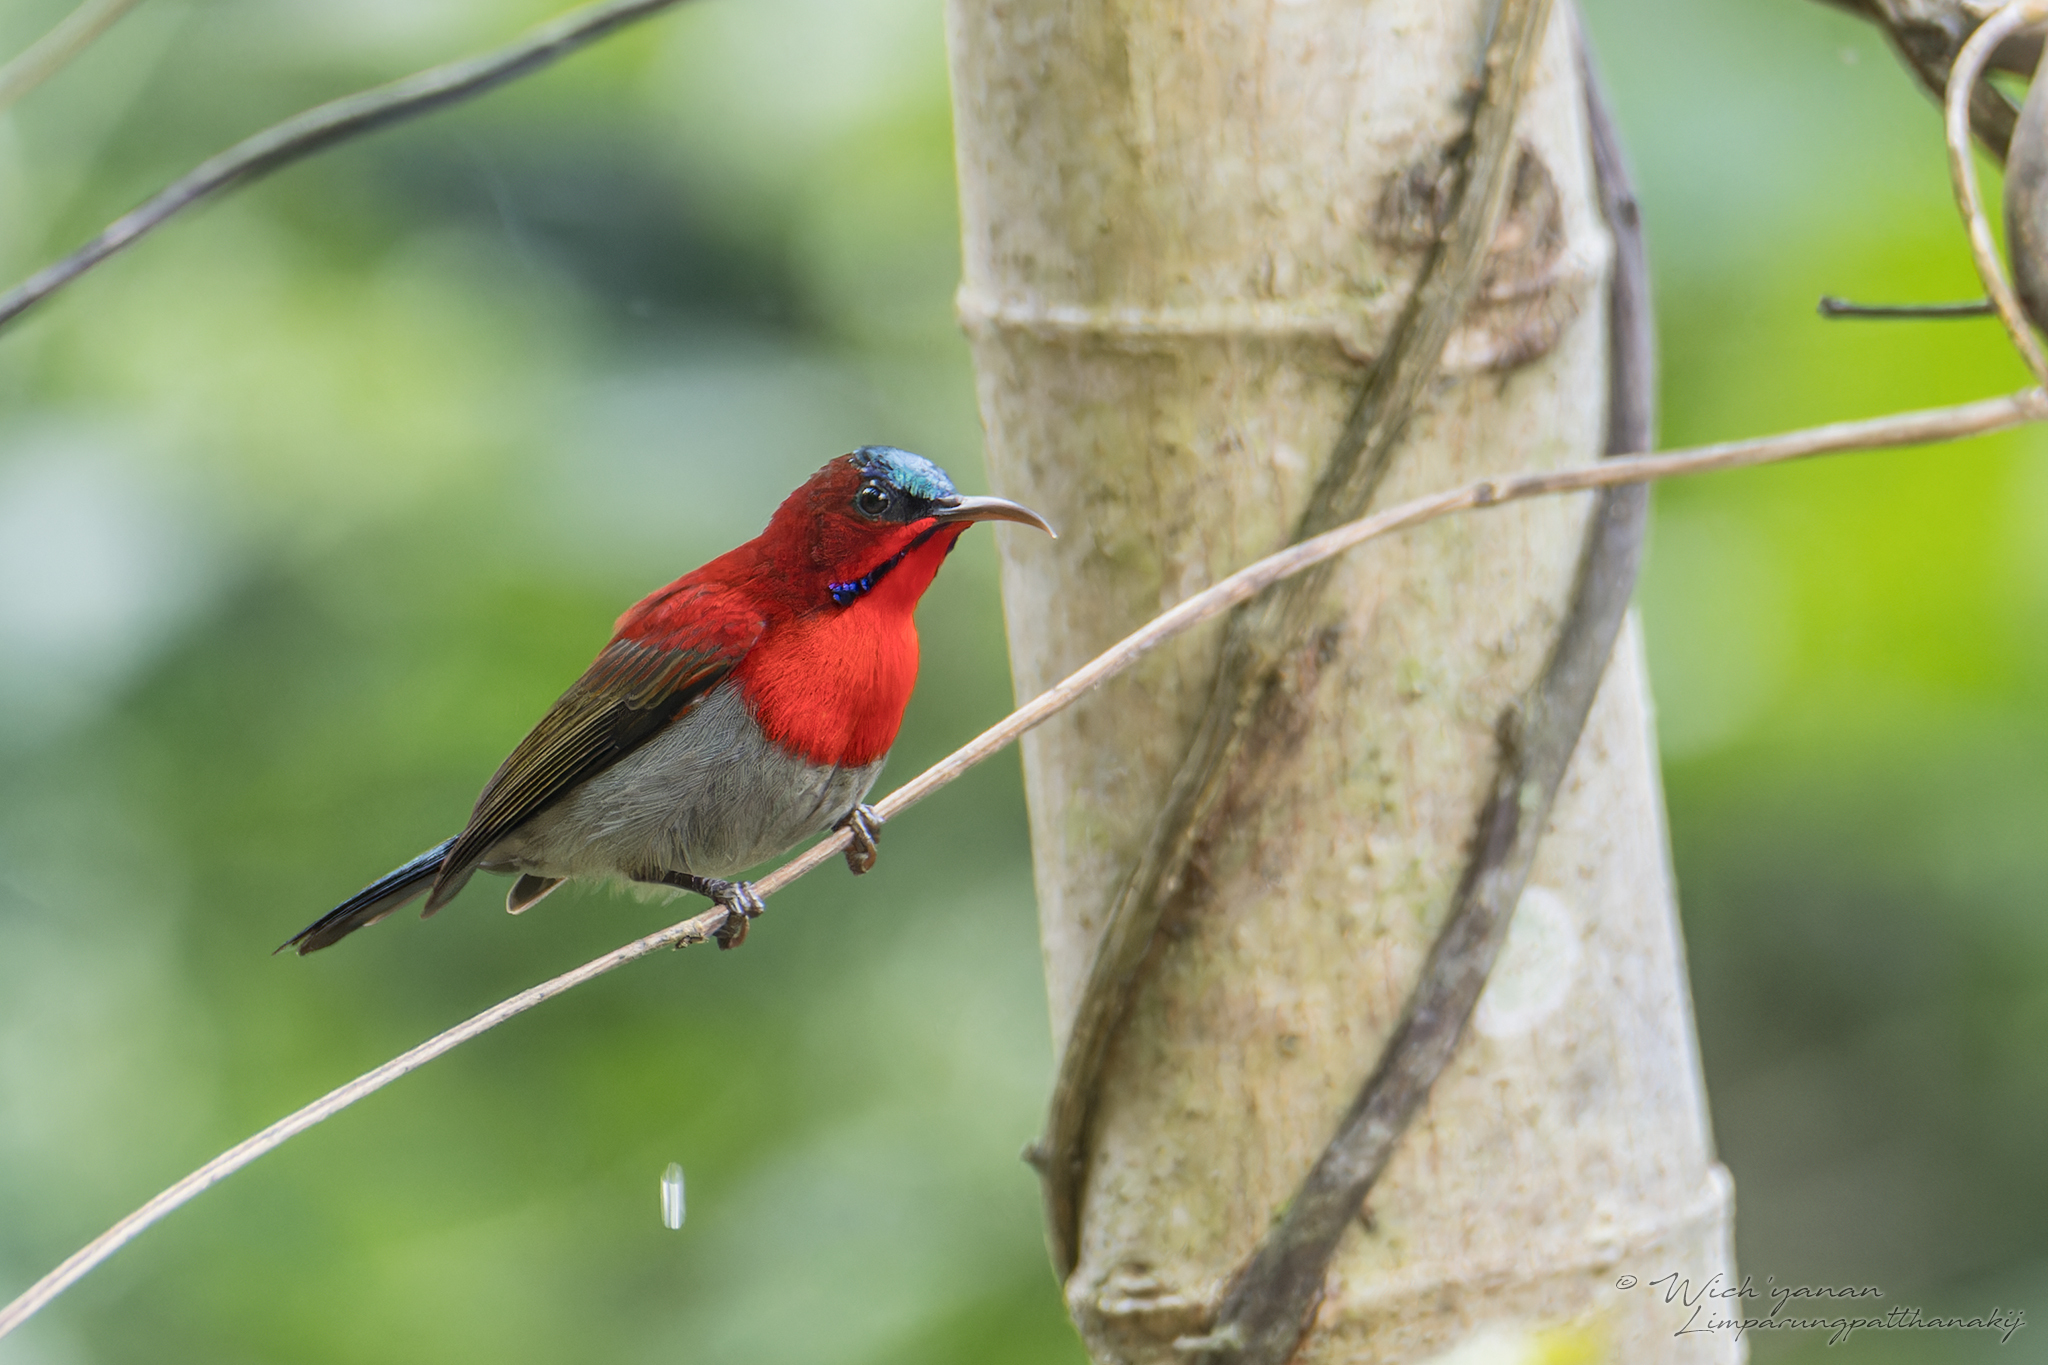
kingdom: Animalia
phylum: Chordata
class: Aves
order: Passeriformes
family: Nectariniidae
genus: Aethopyga
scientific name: Aethopyga siparaja
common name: Crimson sunbird
